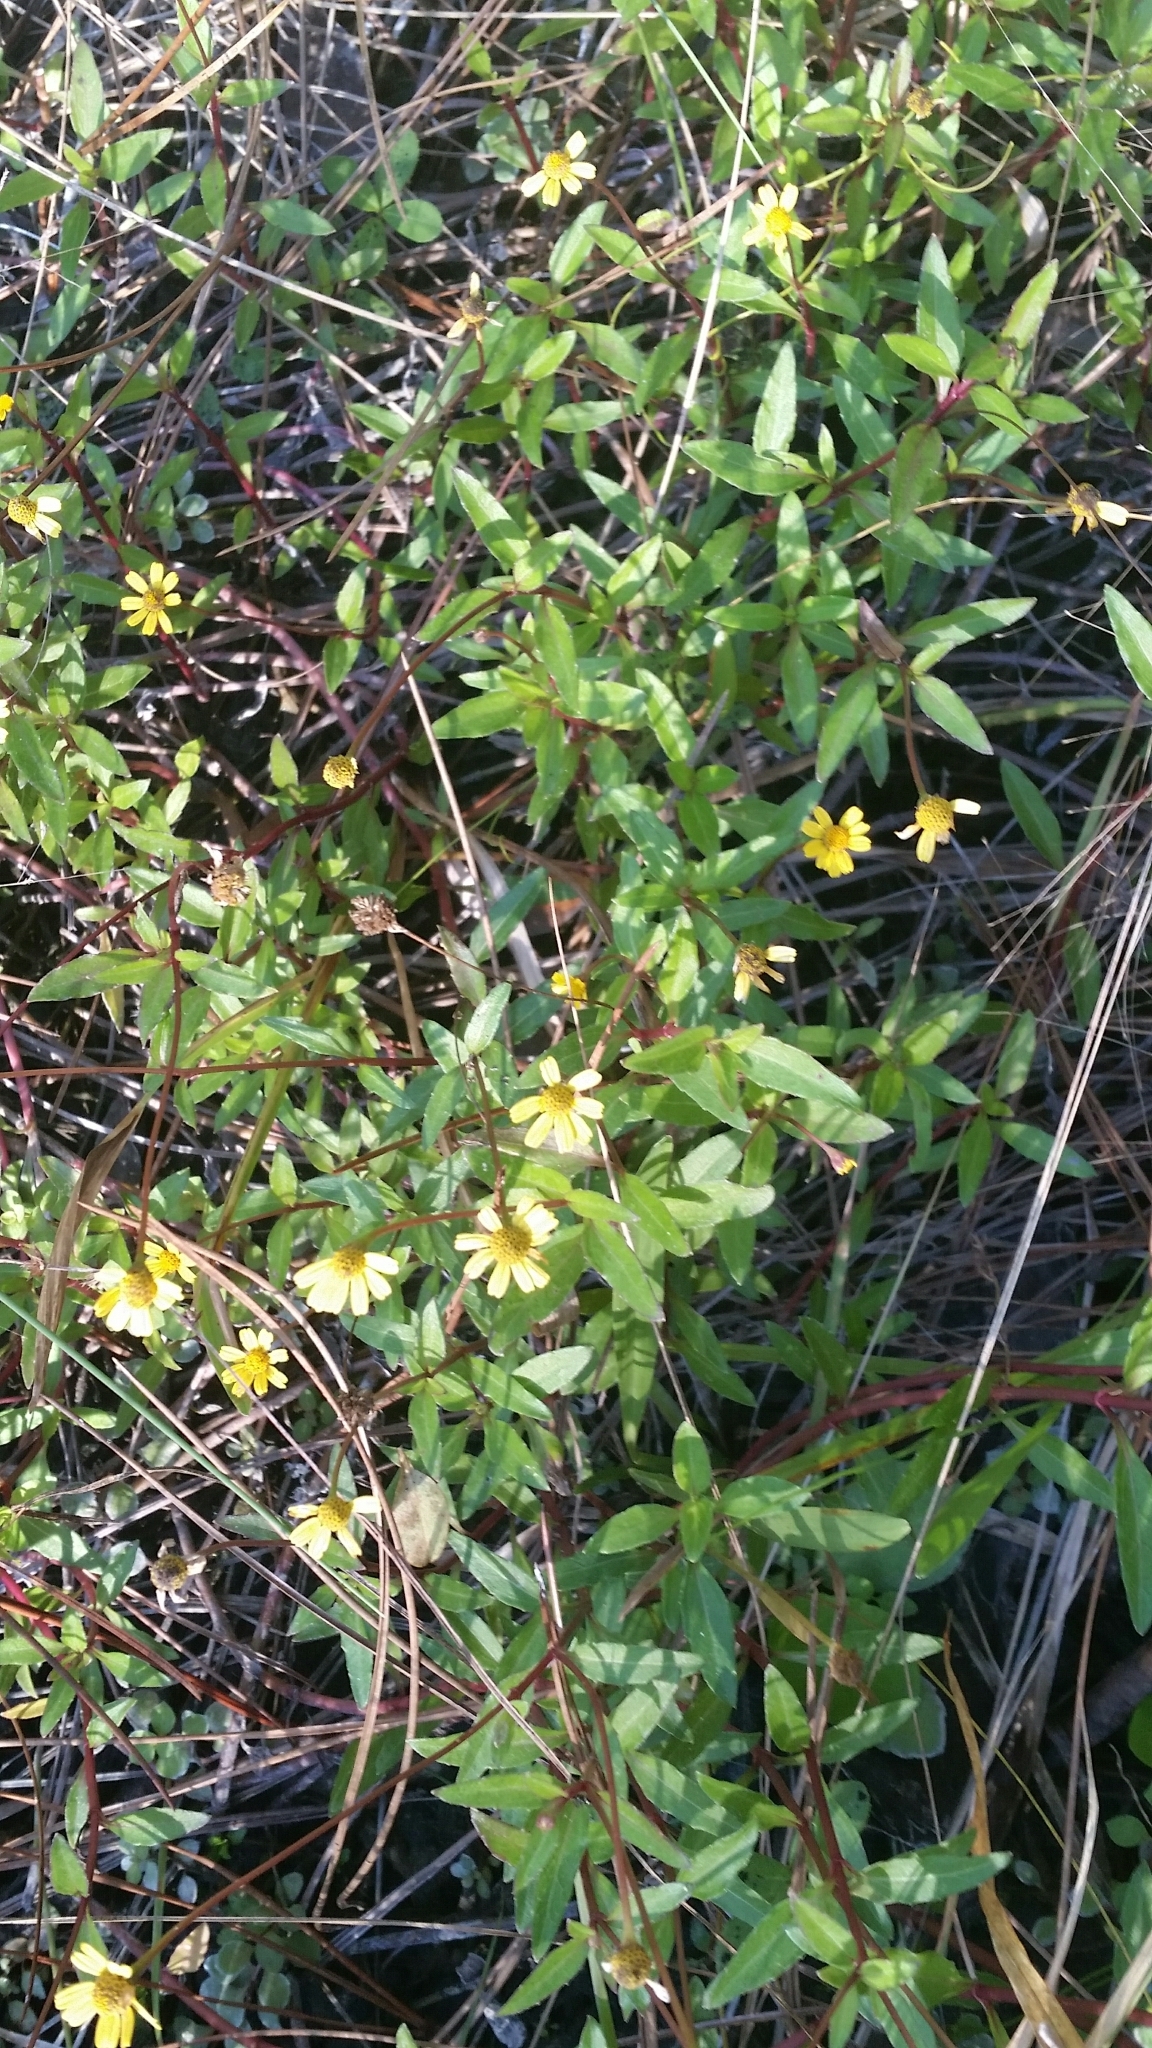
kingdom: Plantae
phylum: Tracheophyta
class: Magnoliopsida
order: Asterales
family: Asteraceae
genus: Acmella
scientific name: Acmella repens
